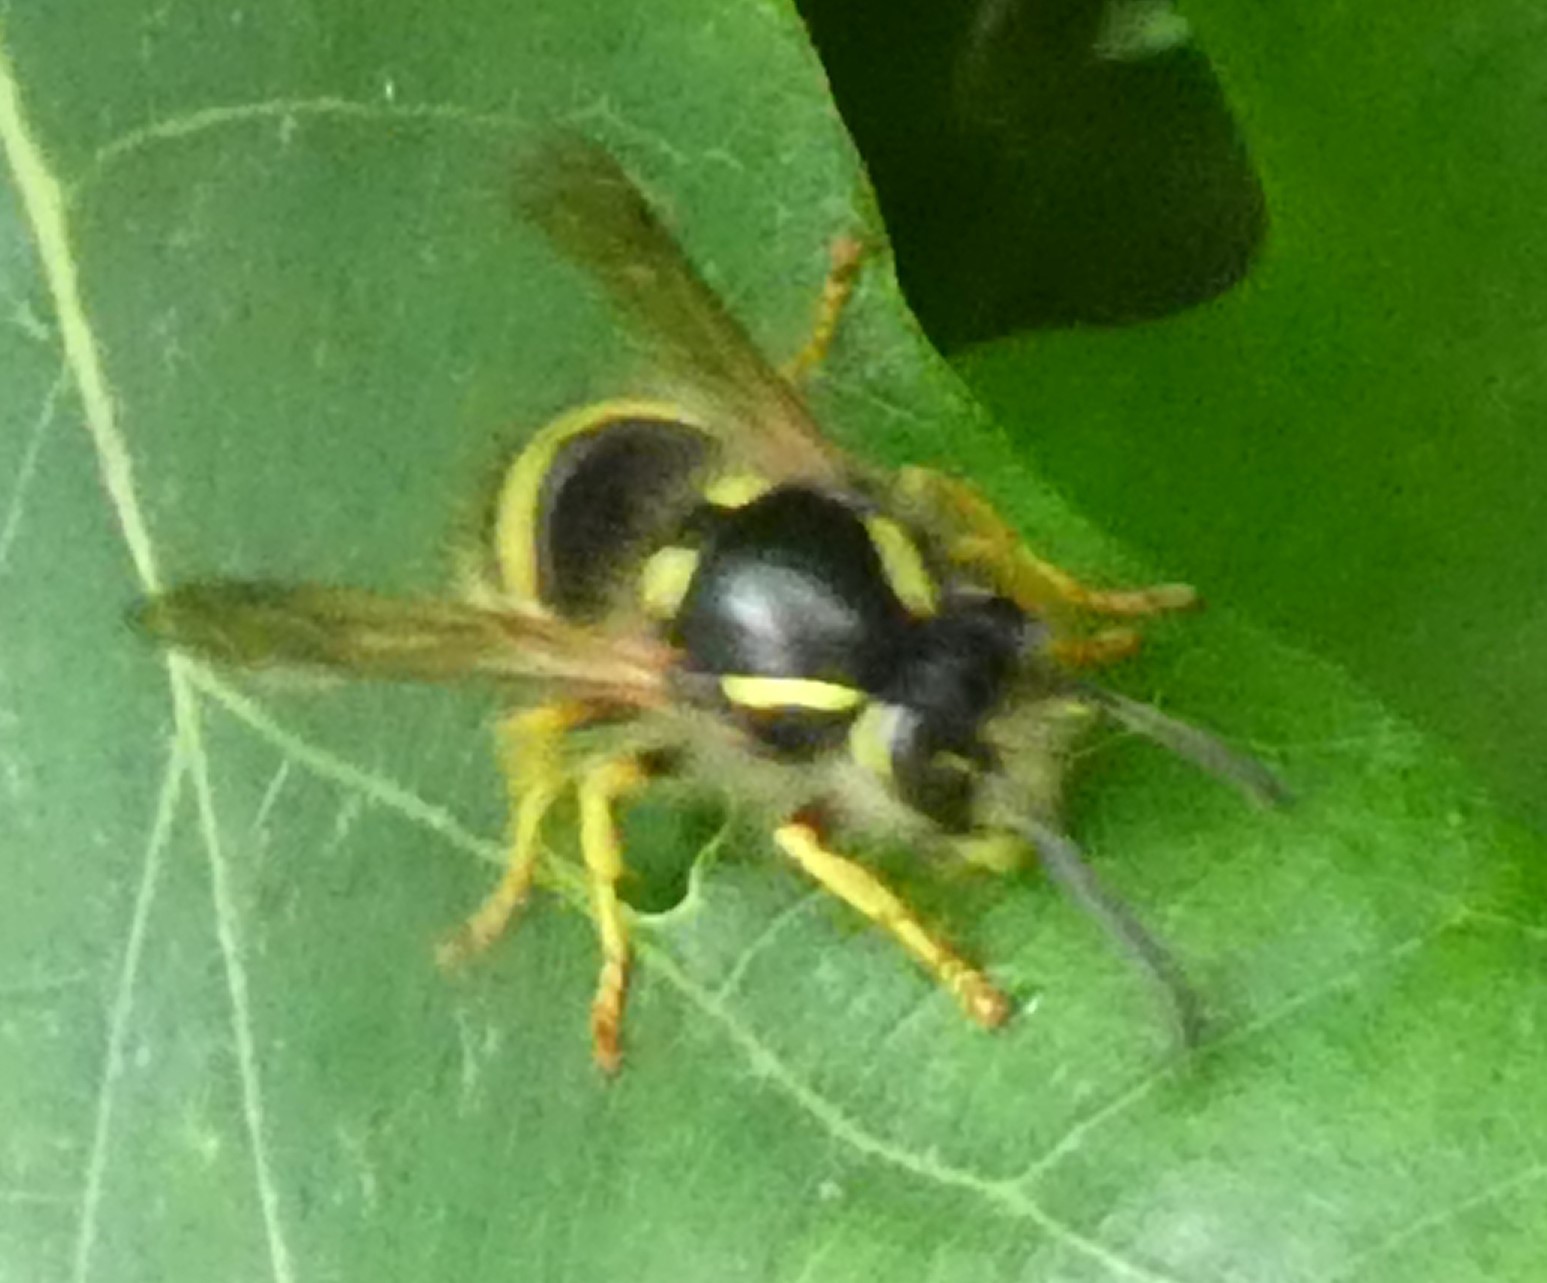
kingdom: Animalia
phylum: Arthropoda
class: Insecta
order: Hymenoptera
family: Vespidae
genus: Dolichovespula
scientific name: Dolichovespula sylvestris
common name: Tree wasp
